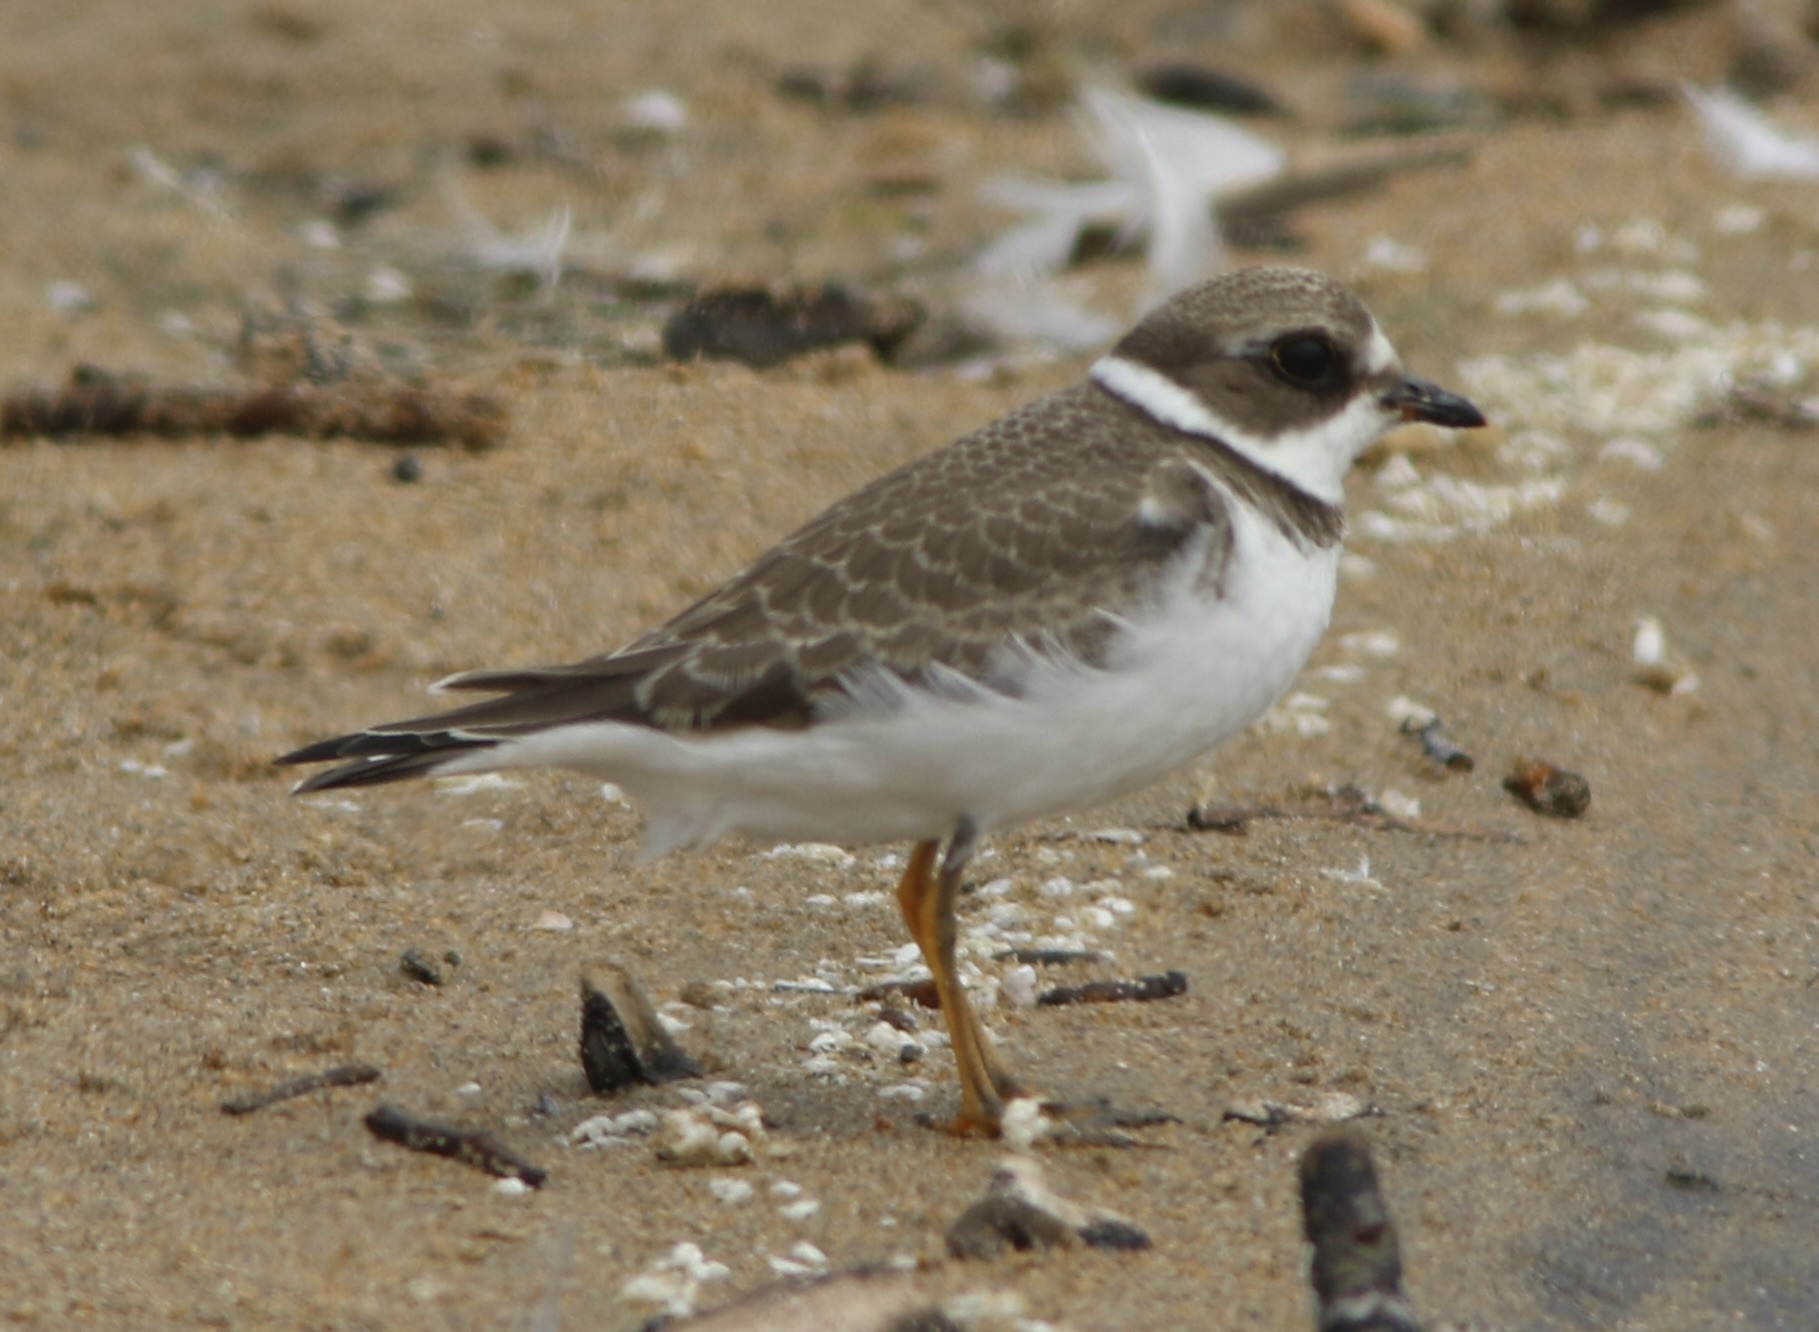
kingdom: Animalia
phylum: Chordata
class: Aves
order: Charadriiformes
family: Charadriidae
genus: Charadrius
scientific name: Charadrius semipalmatus
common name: Semipalmated plover
